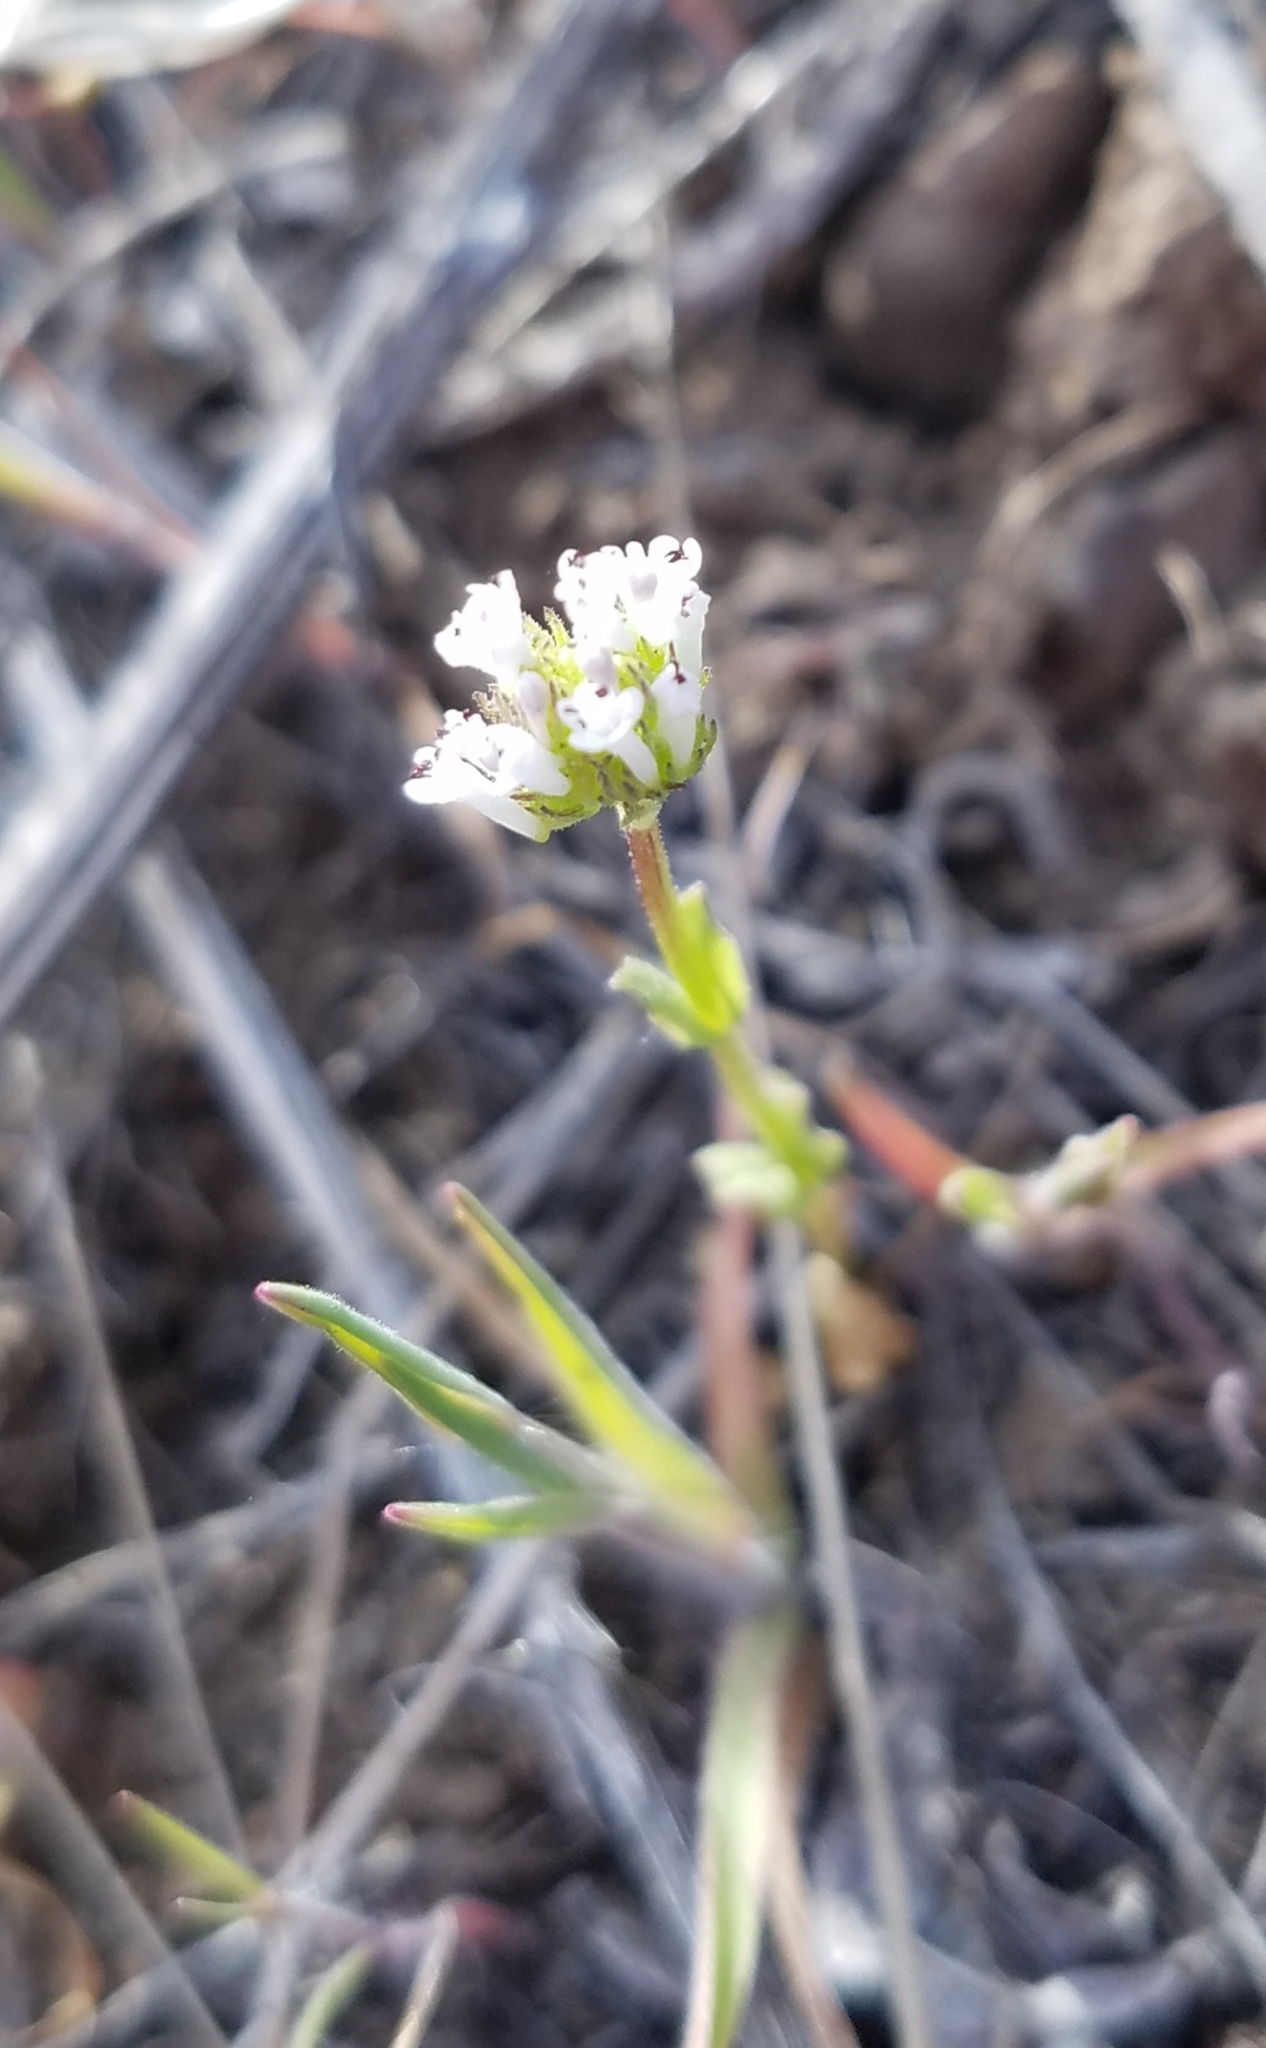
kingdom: Plantae
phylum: Tracheophyta
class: Magnoliopsida
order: Dipsacales
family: Caprifoliaceae
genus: Plectritis
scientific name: Plectritis macroptera
